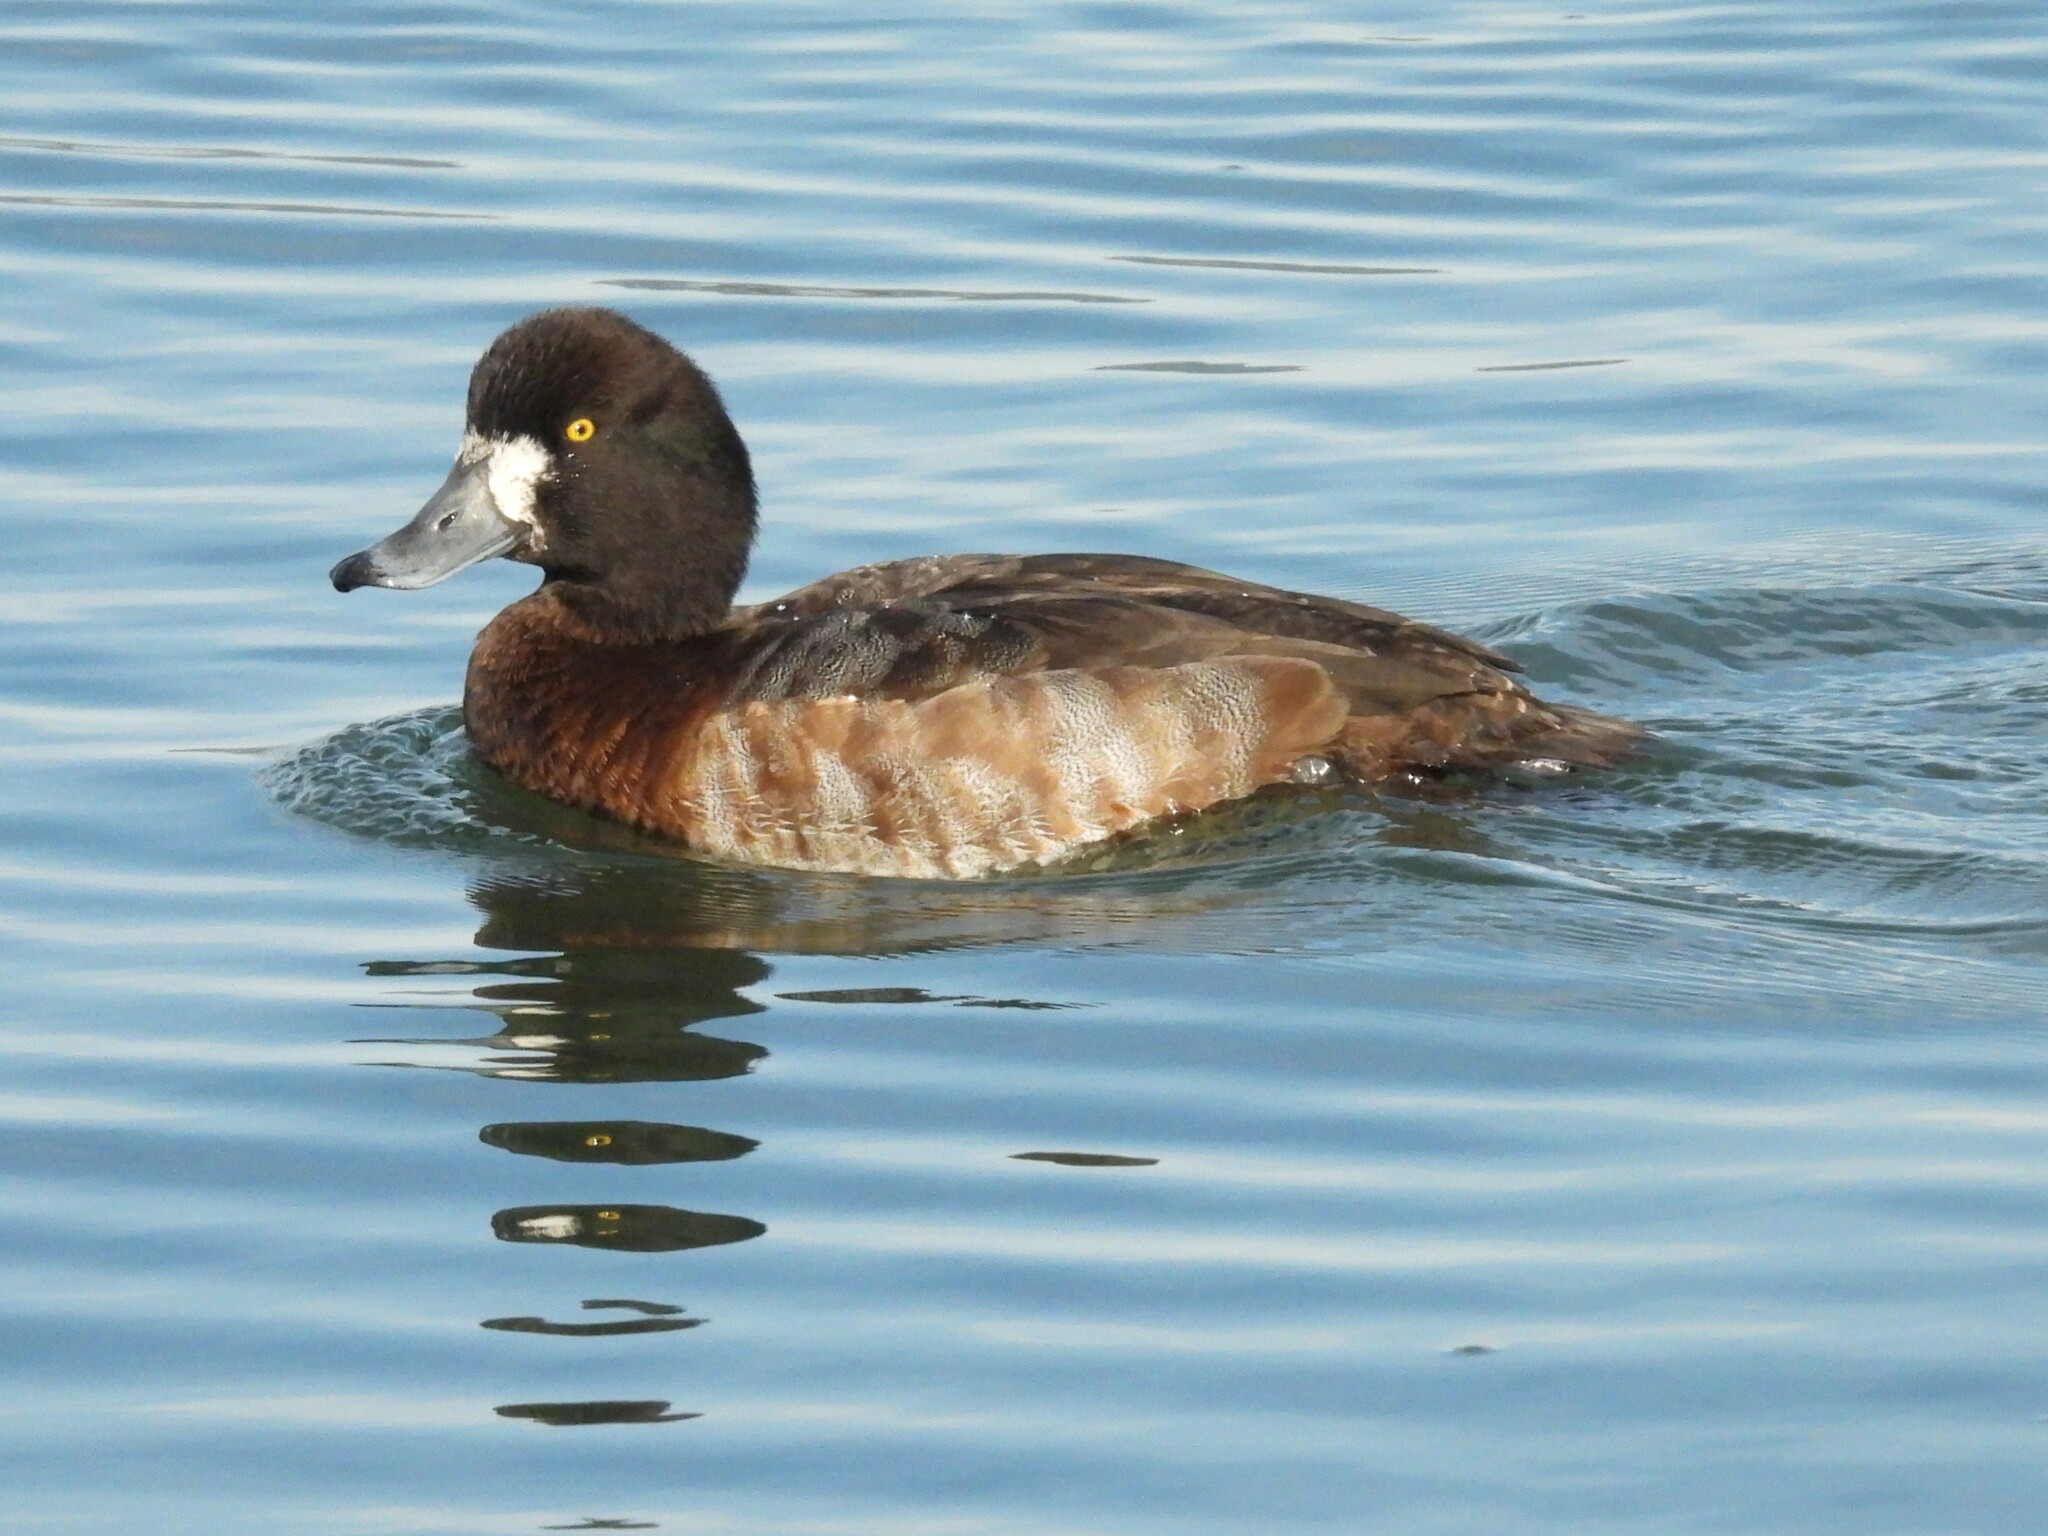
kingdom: Animalia
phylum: Chordata
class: Aves
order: Anseriformes
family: Anatidae
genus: Aythya
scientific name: Aythya marila
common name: Greater scaup
